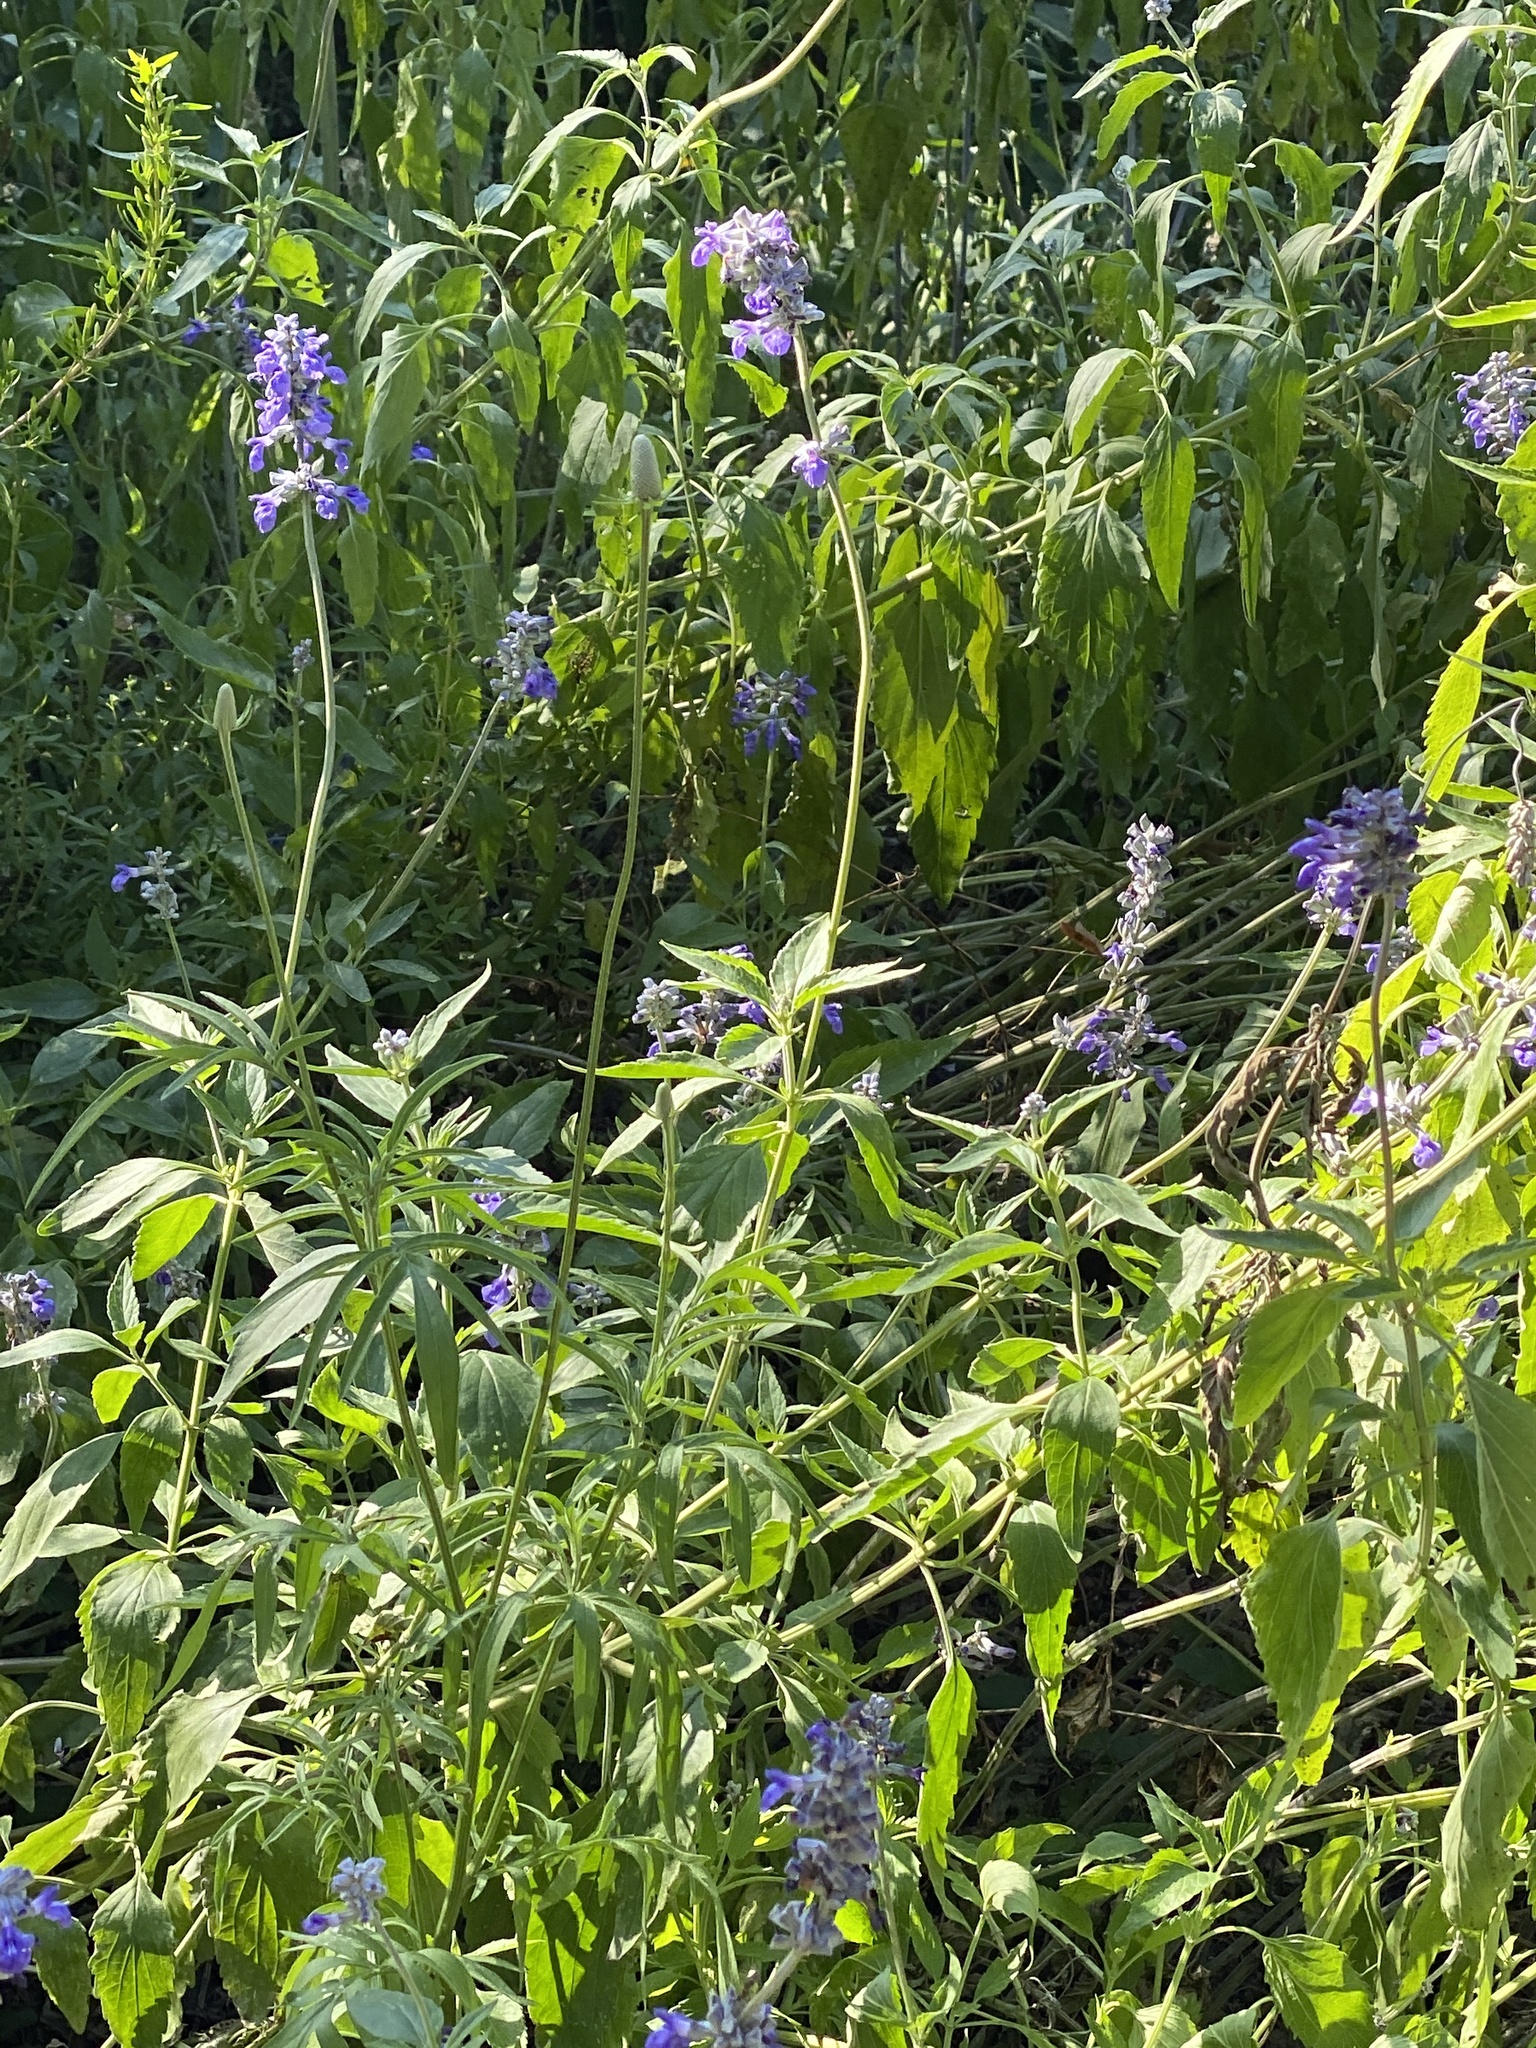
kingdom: Plantae
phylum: Tracheophyta
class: Magnoliopsida
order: Lamiales
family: Lamiaceae
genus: Salvia
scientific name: Salvia farinacea
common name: Mealy sage
